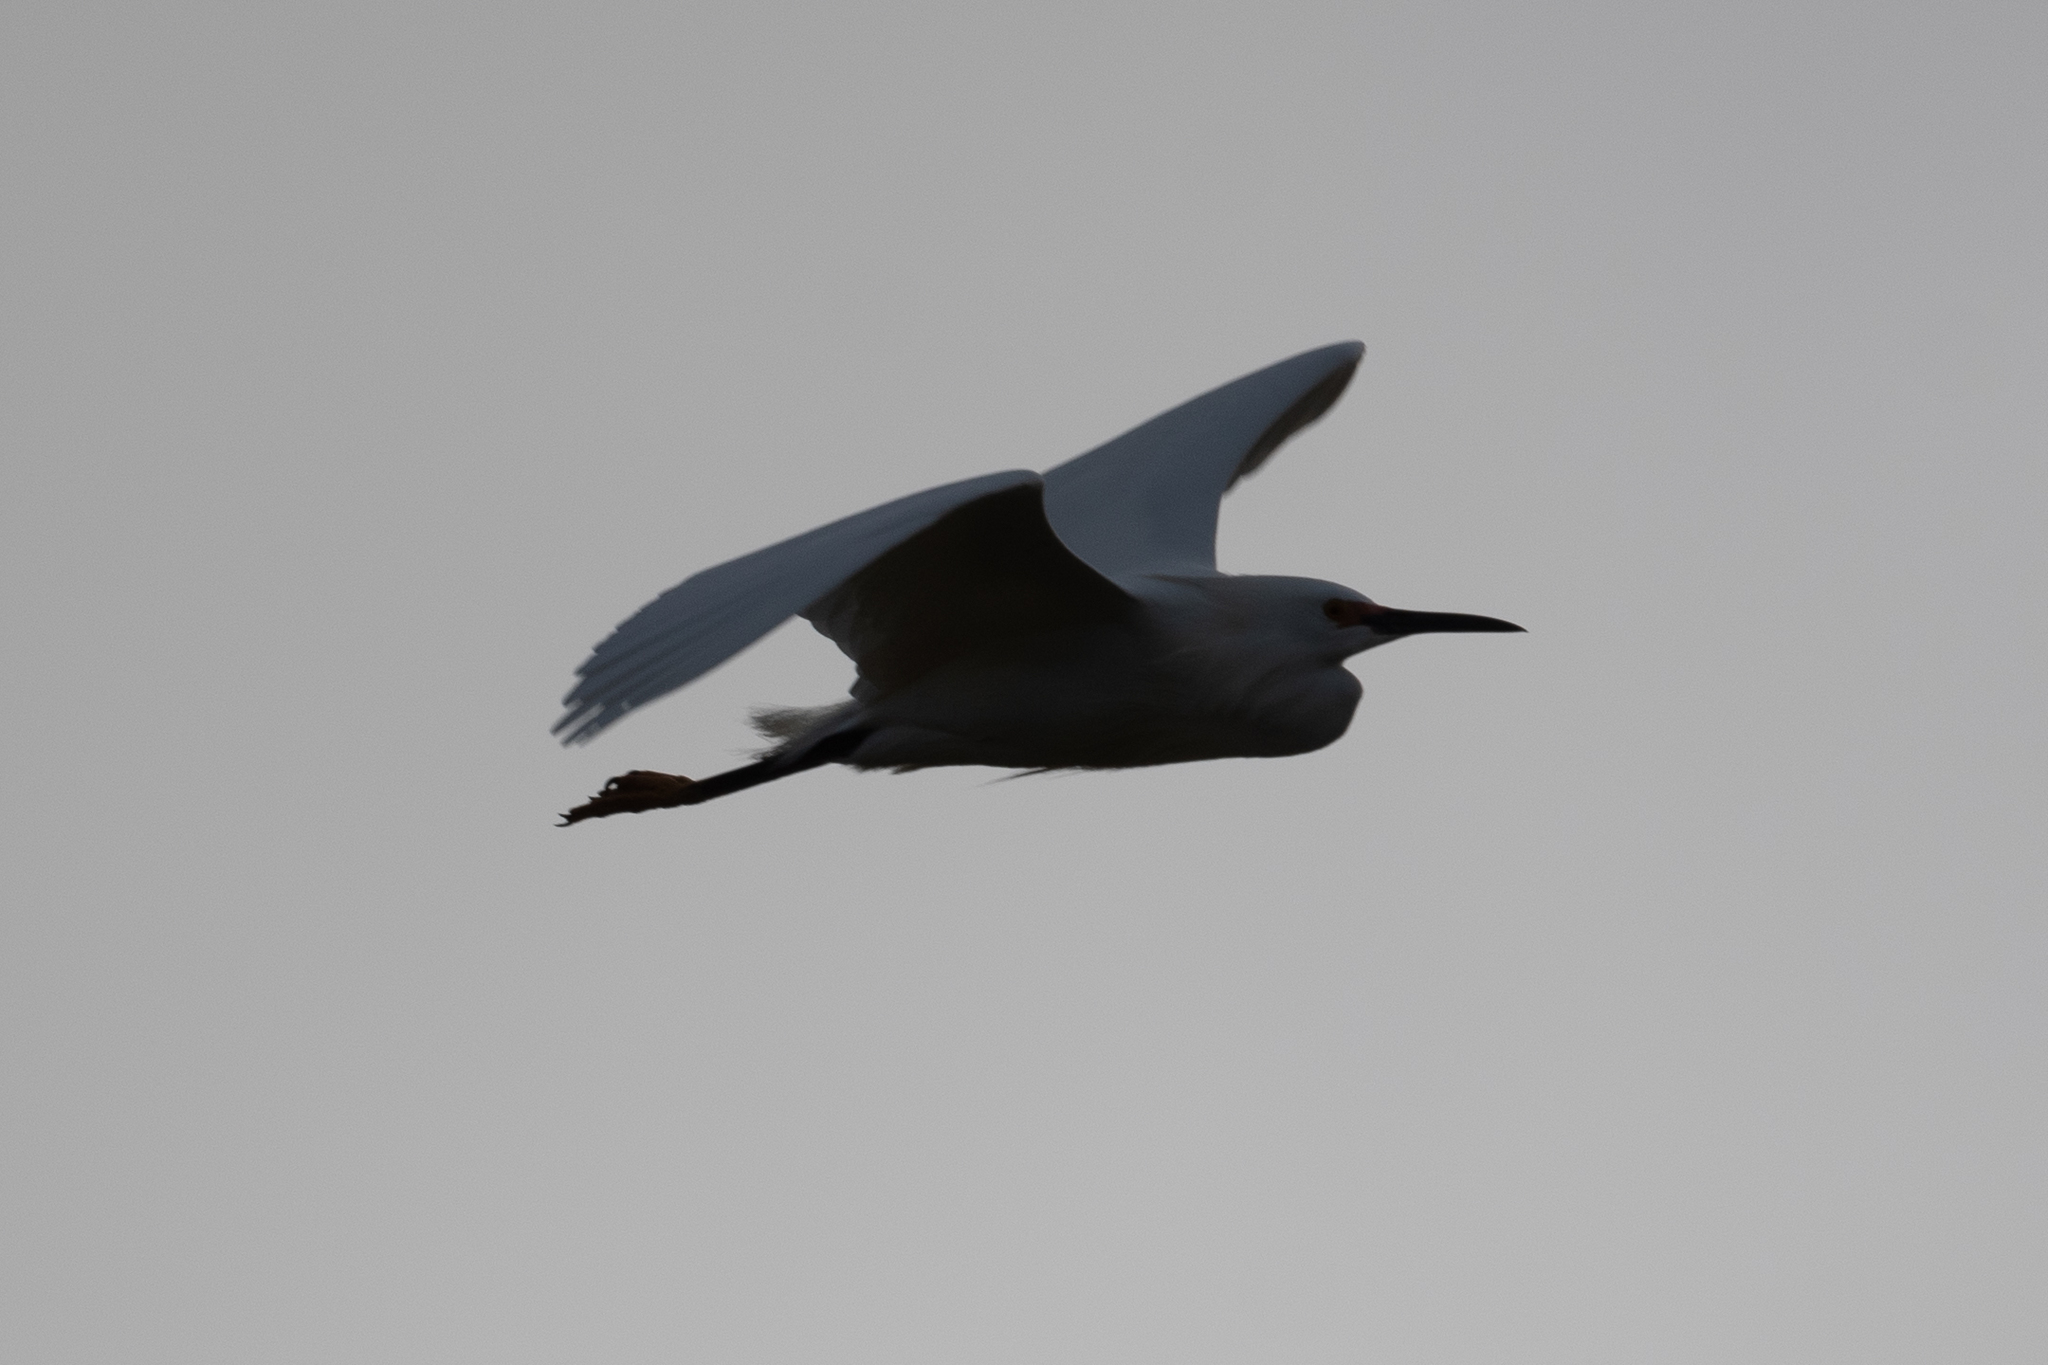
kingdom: Animalia
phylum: Chordata
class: Aves
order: Pelecaniformes
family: Ardeidae
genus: Egretta
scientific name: Egretta thula
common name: Snowy egret
